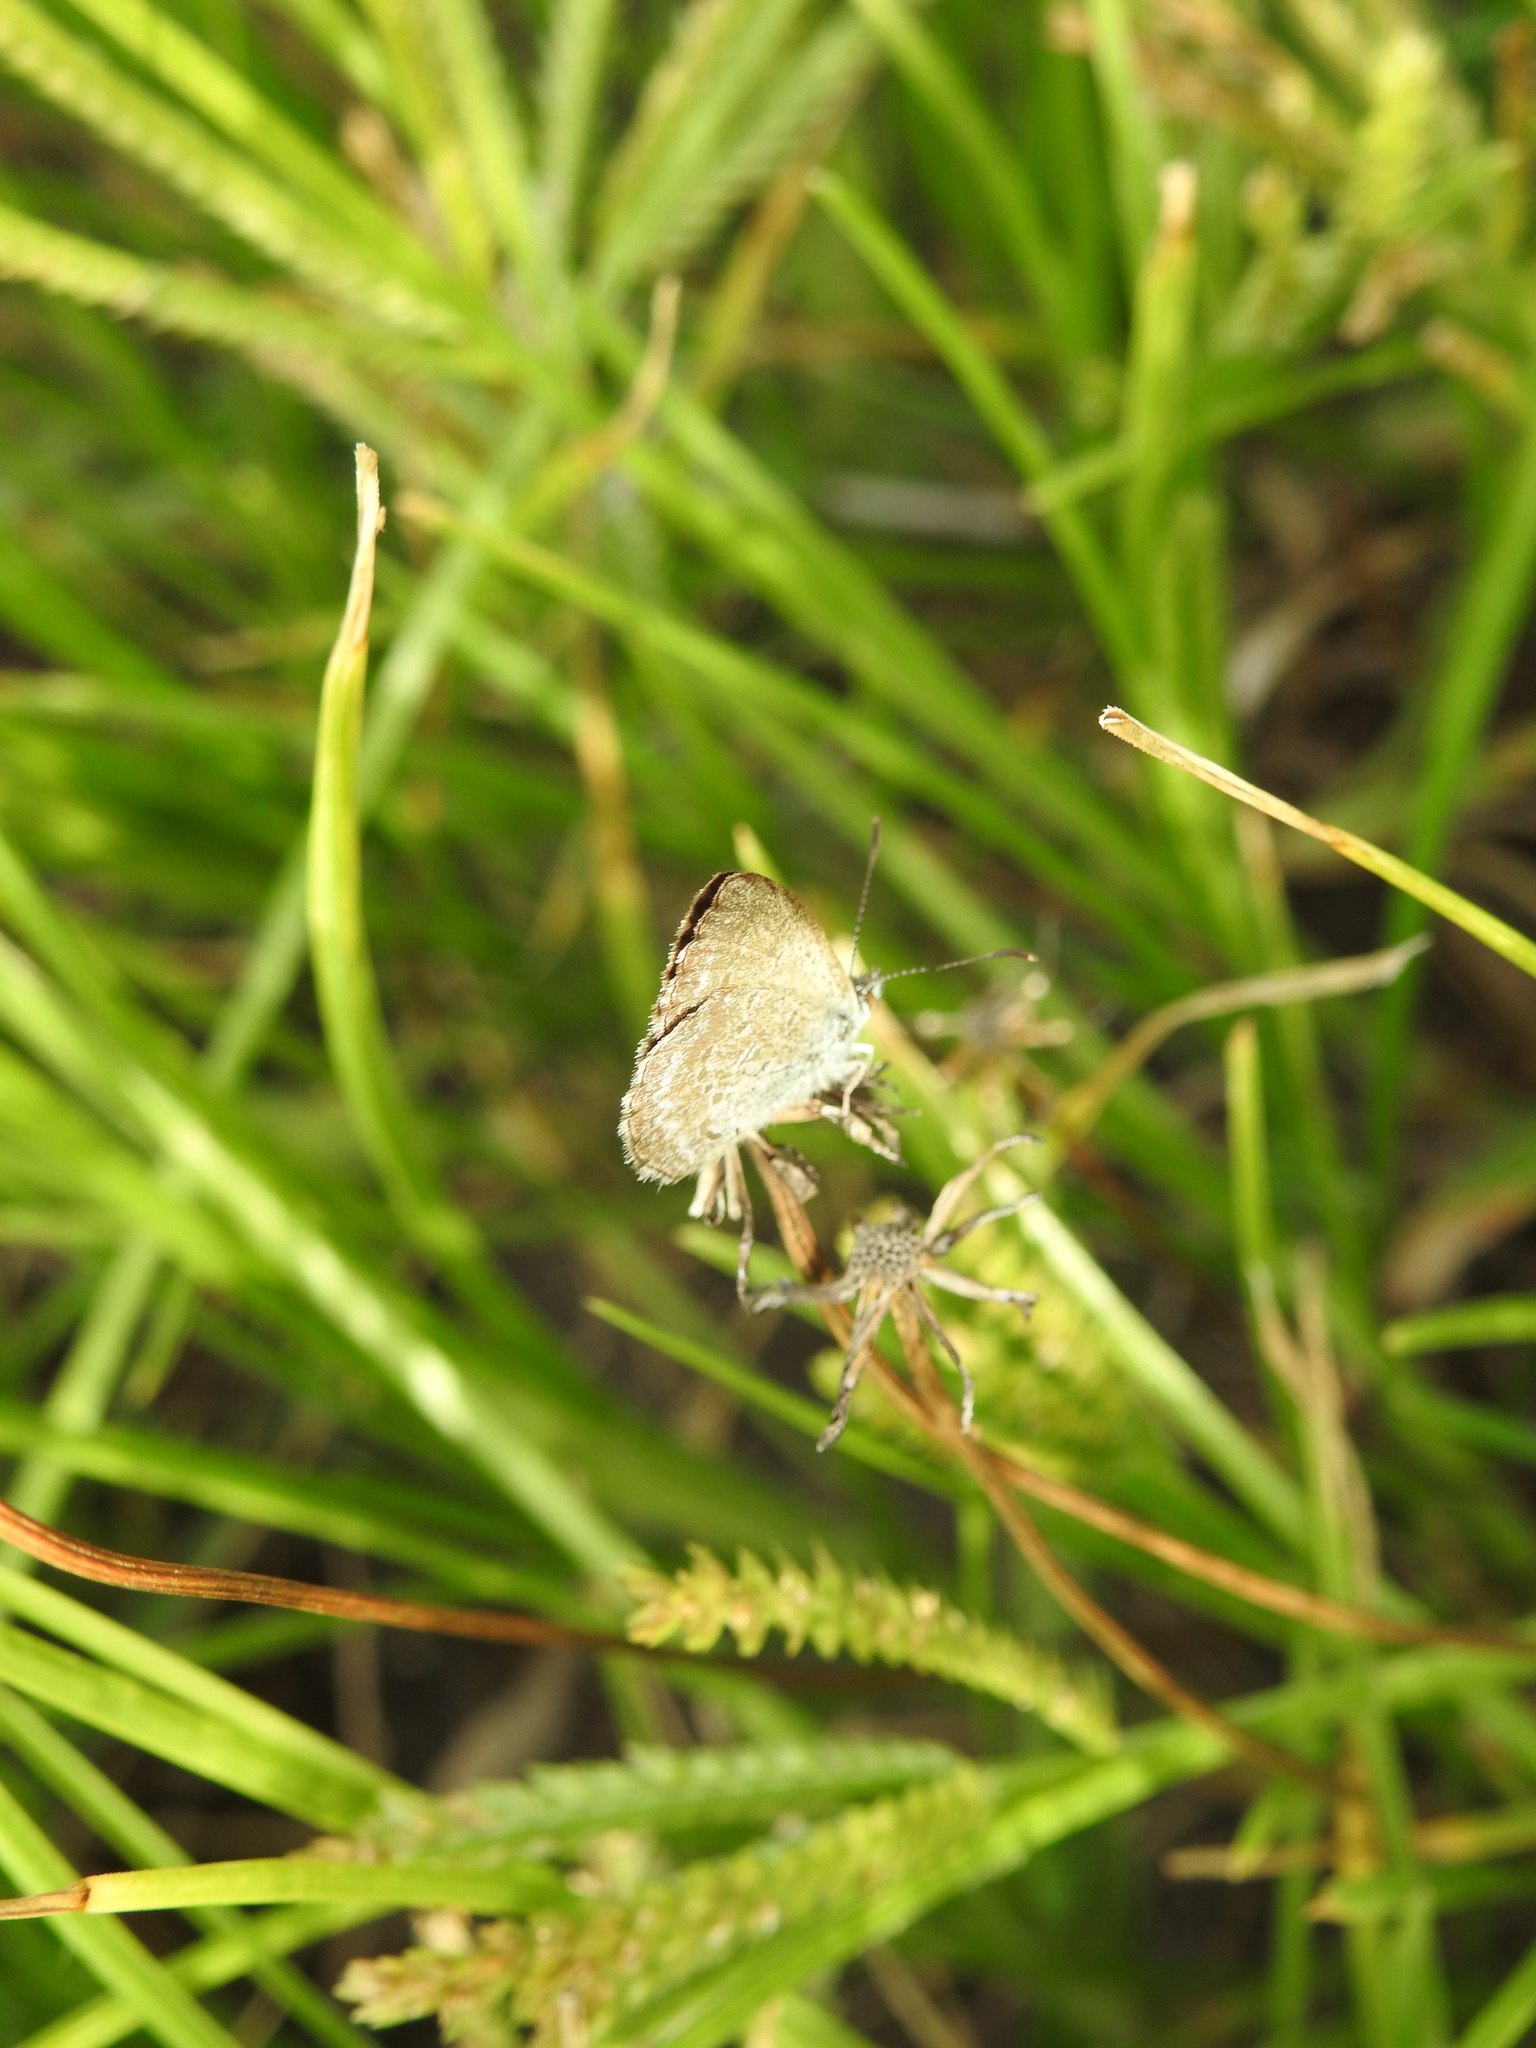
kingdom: Animalia
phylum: Arthropoda
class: Insecta
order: Lepidoptera
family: Lycaenidae
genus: Zizina
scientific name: Zizina labradus
